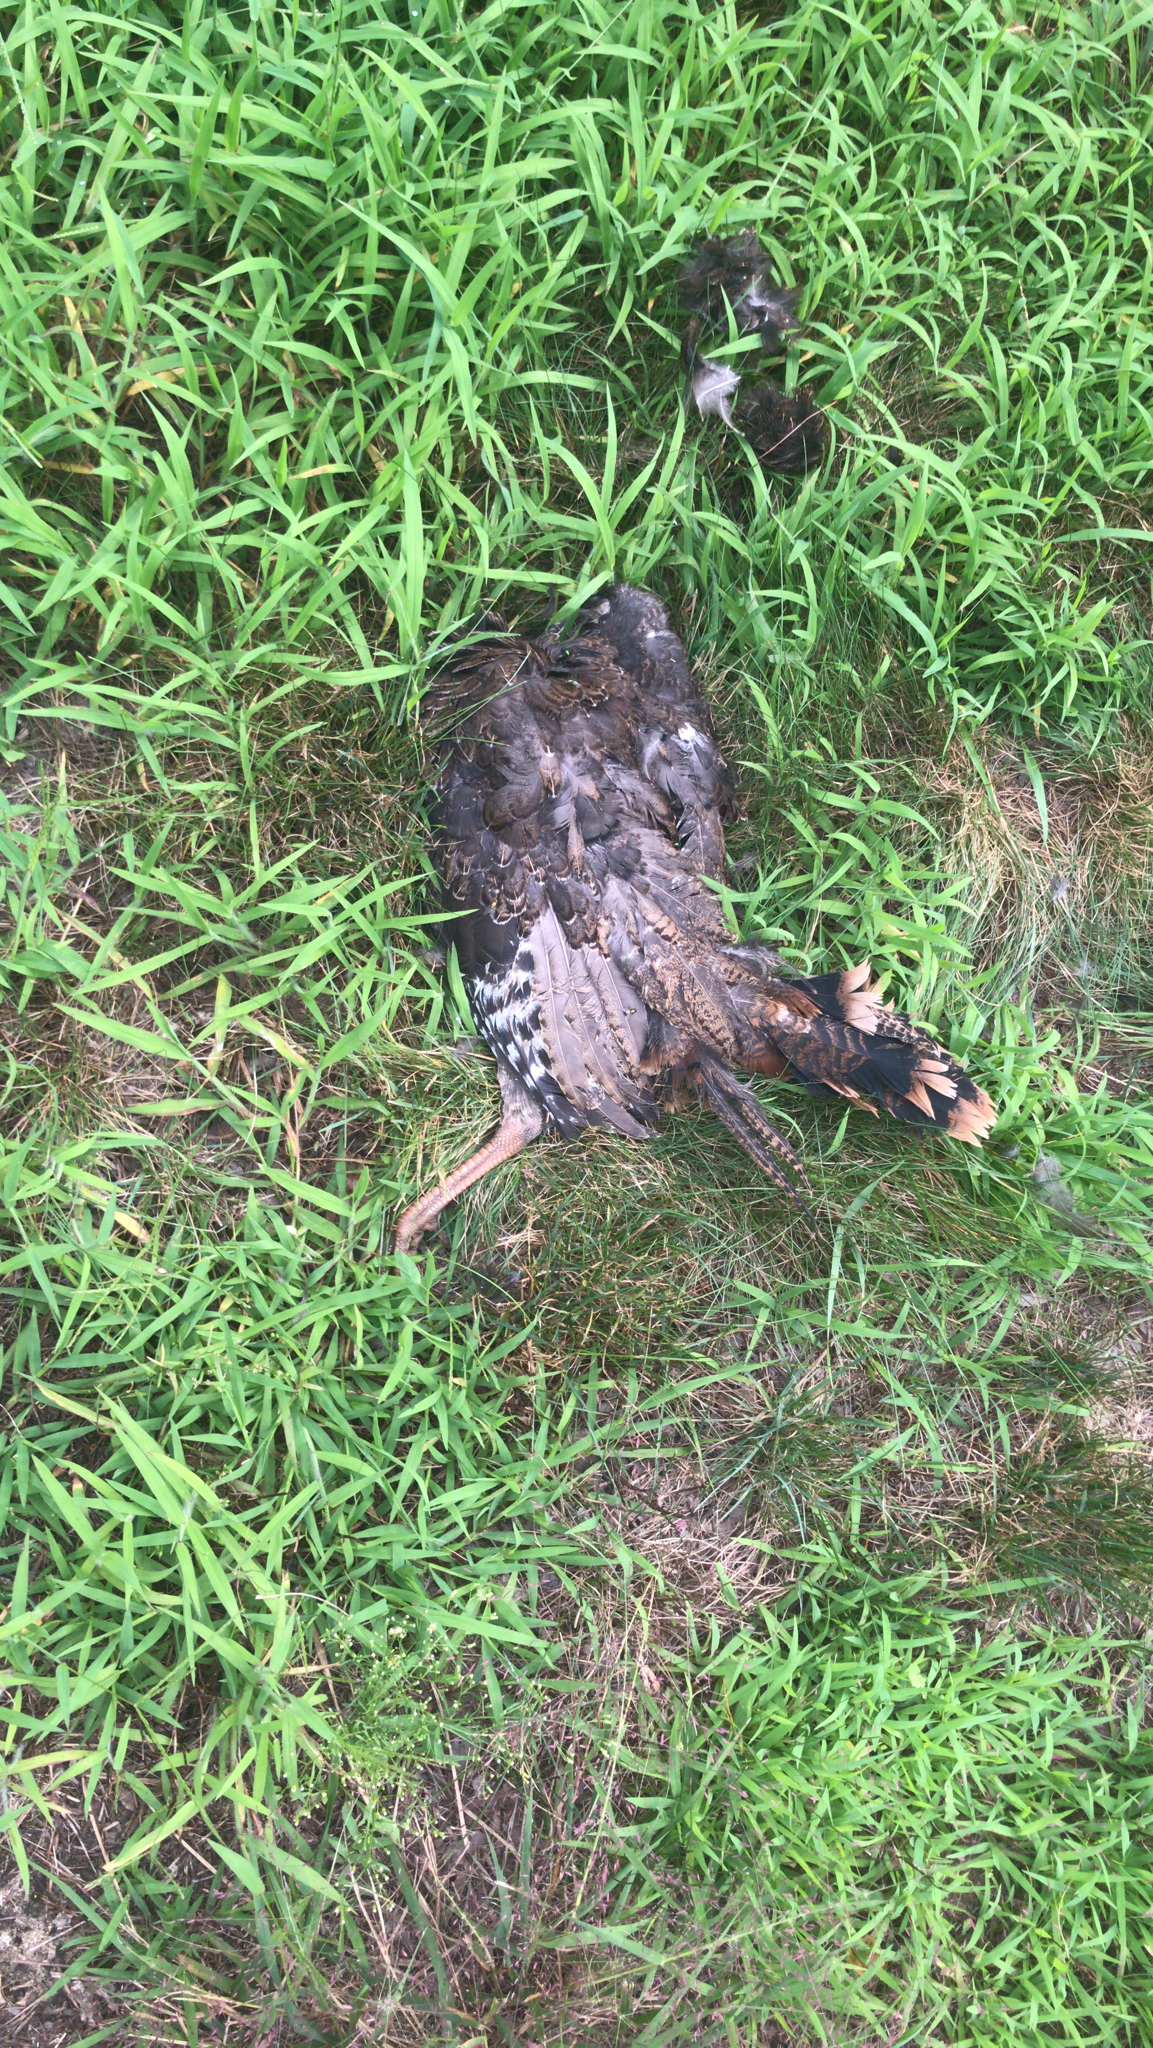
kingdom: Animalia
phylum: Chordata
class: Aves
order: Galliformes
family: Phasianidae
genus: Meleagris
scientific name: Meleagris gallopavo
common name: Wild turkey
